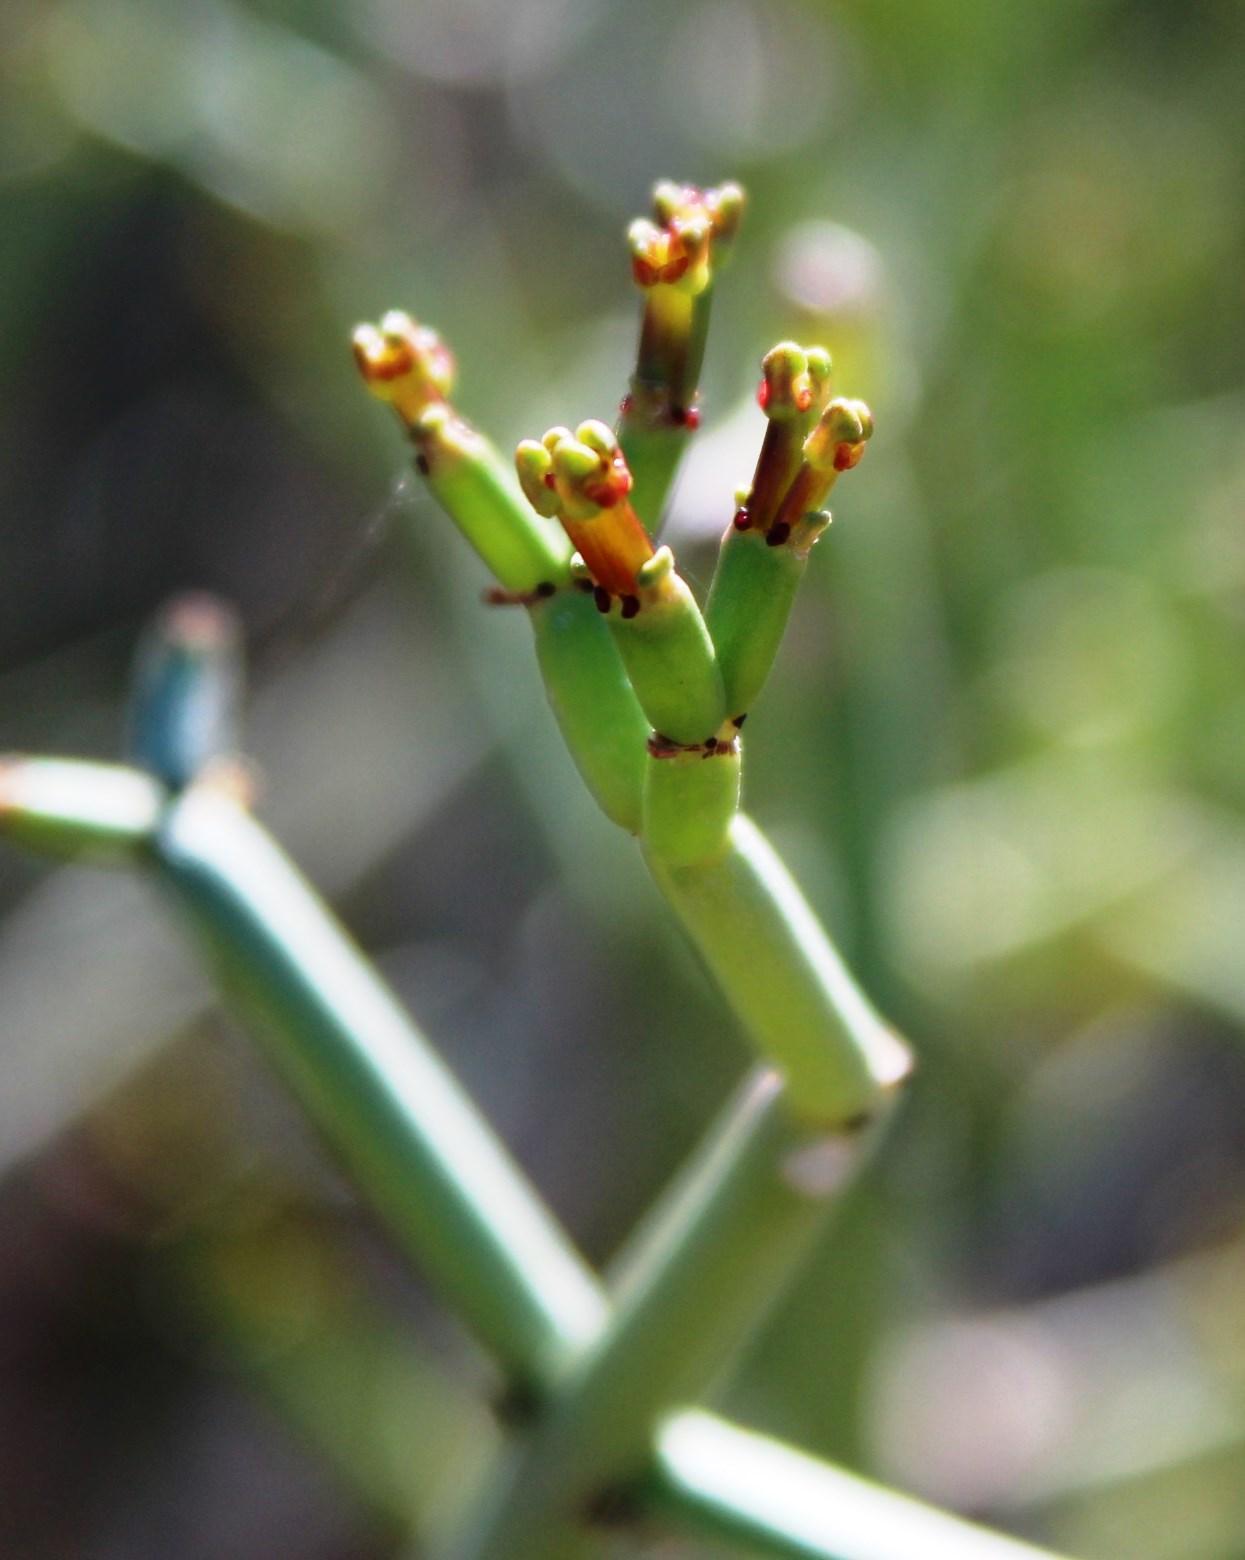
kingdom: Plantae
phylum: Tracheophyta
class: Magnoliopsida
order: Malpighiales
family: Euphorbiaceae
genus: Euphorbia
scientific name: Euphorbia burmanni
